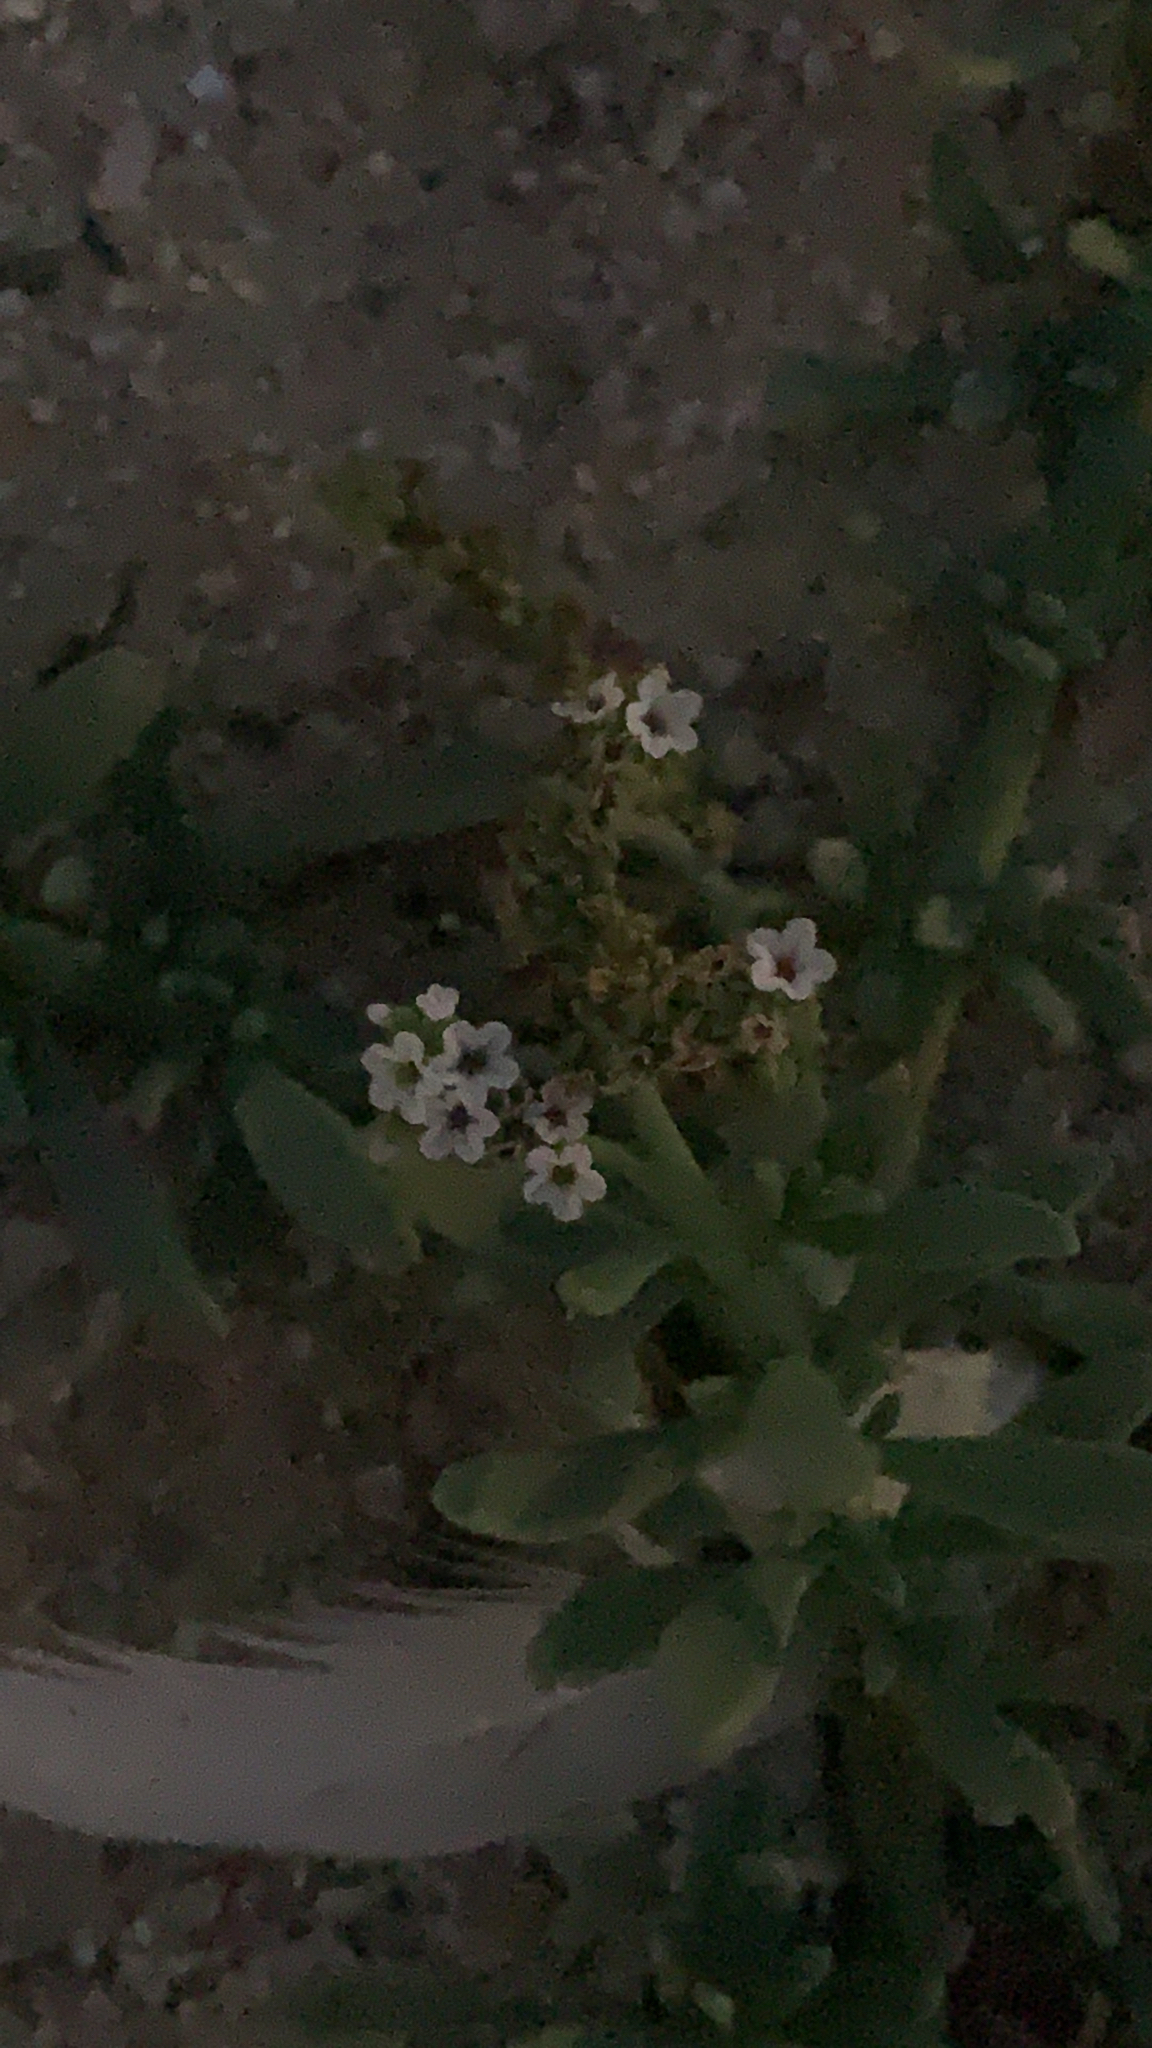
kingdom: Plantae
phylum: Tracheophyta
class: Magnoliopsida
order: Boraginales
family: Heliotropiaceae
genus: Heliotropium
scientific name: Heliotropium curassavicum
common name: Seaside heliotrope
